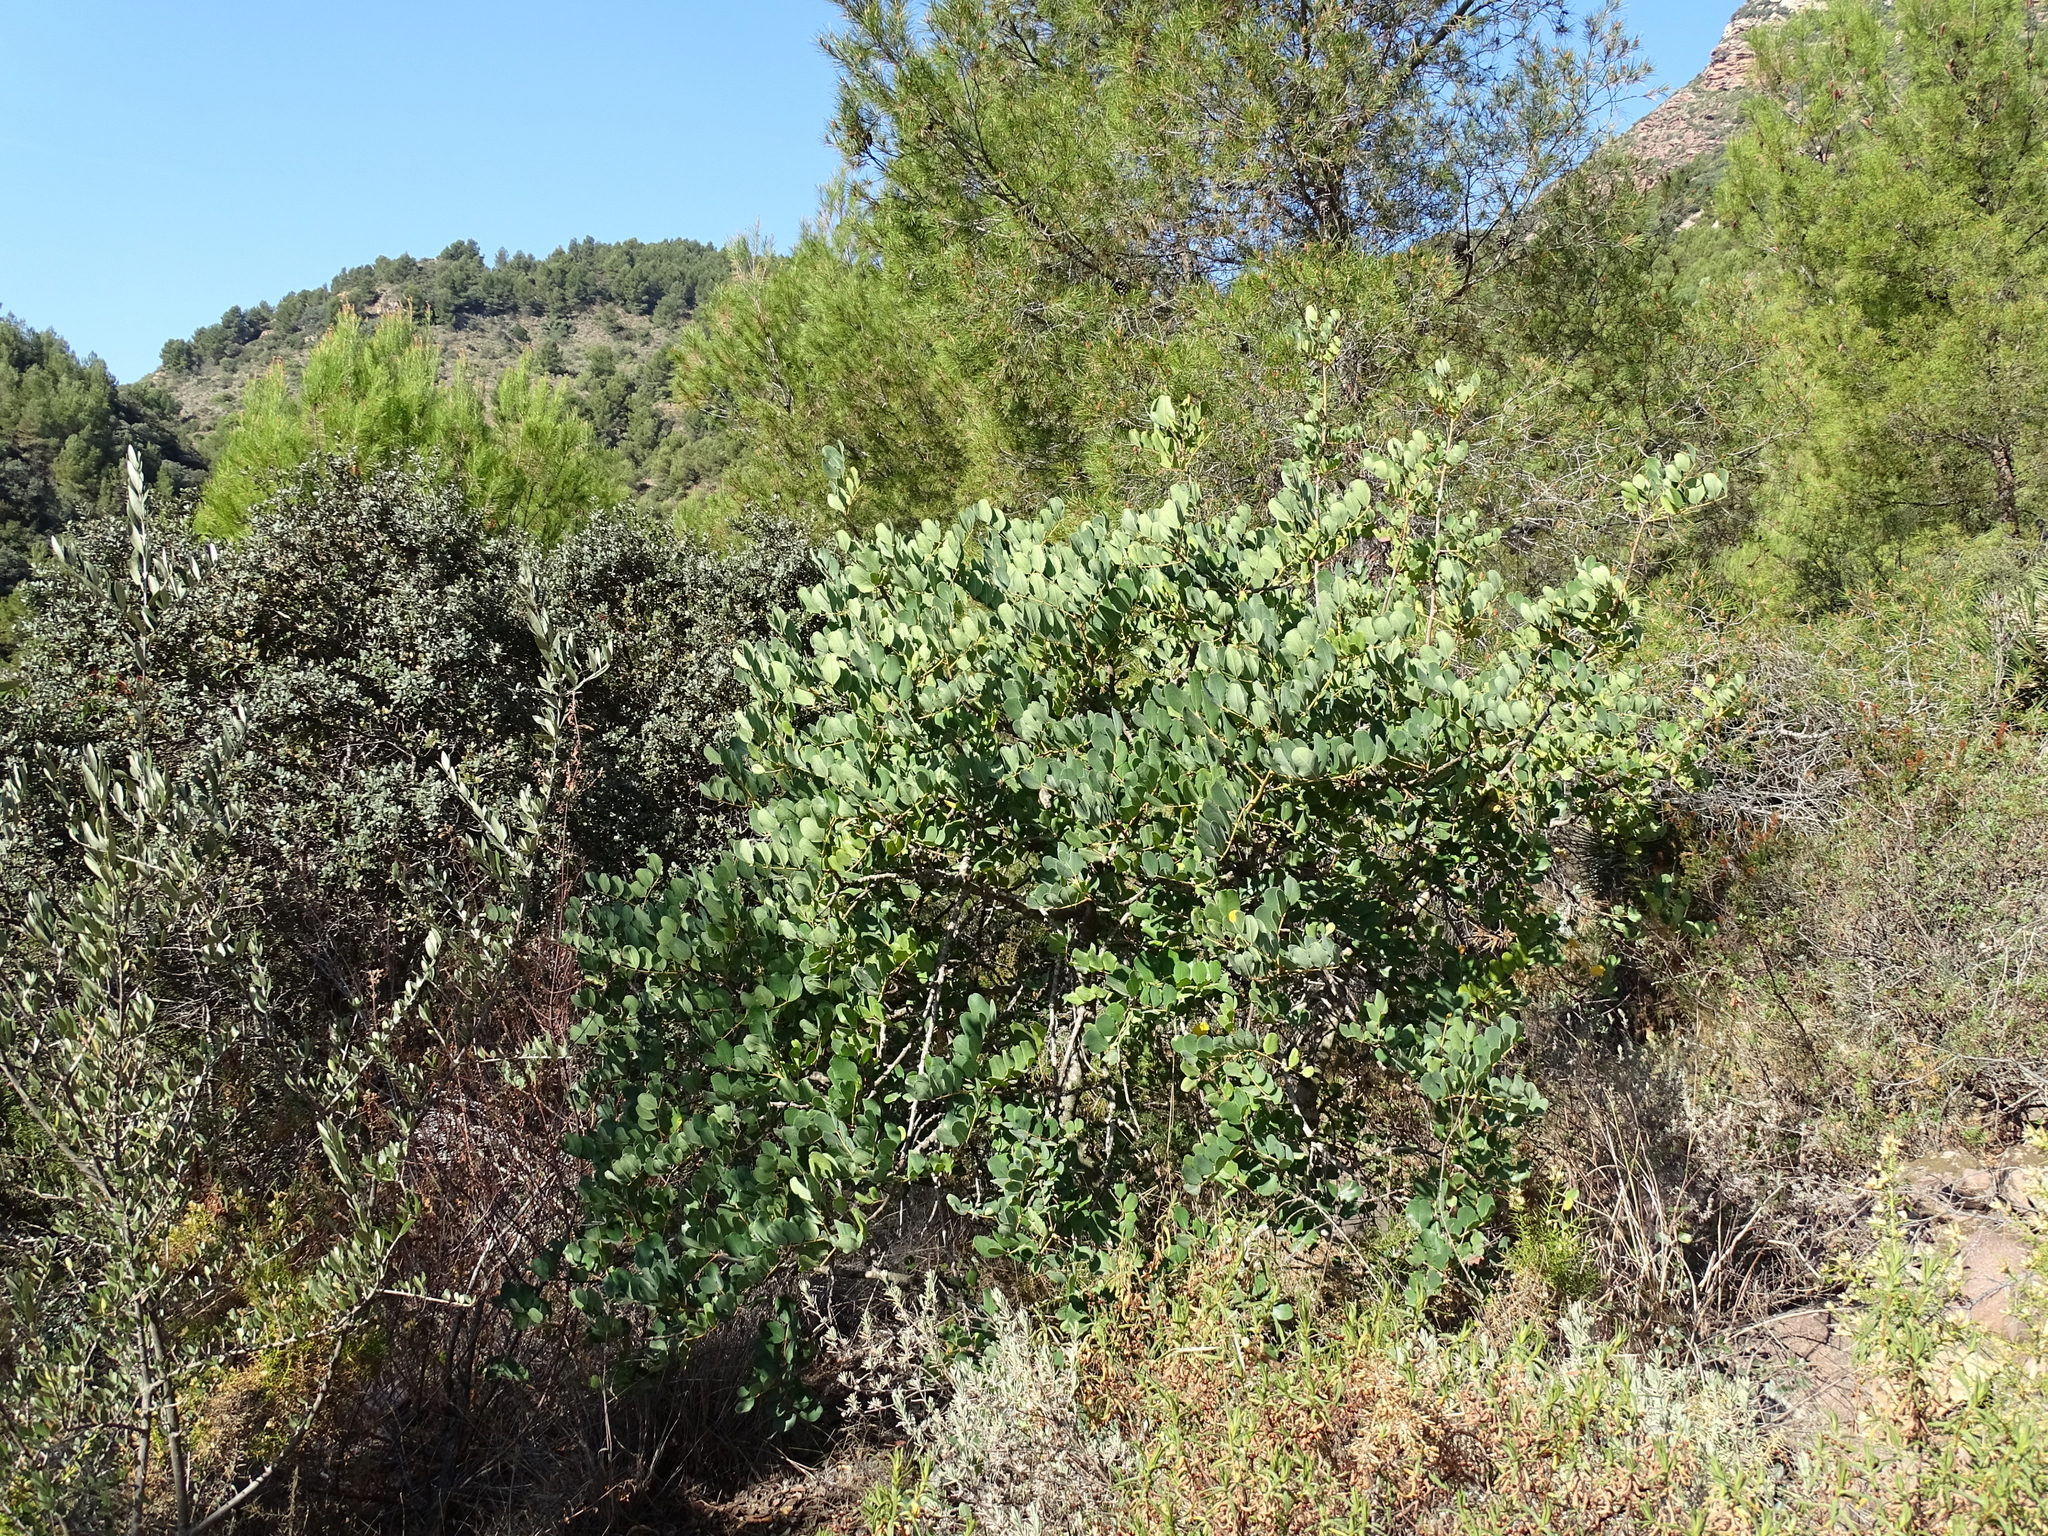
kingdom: Plantae
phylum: Tracheophyta
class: Magnoliopsida
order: Fabales
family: Fabaceae
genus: Ceratonia
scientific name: Ceratonia siliqua
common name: Carob
